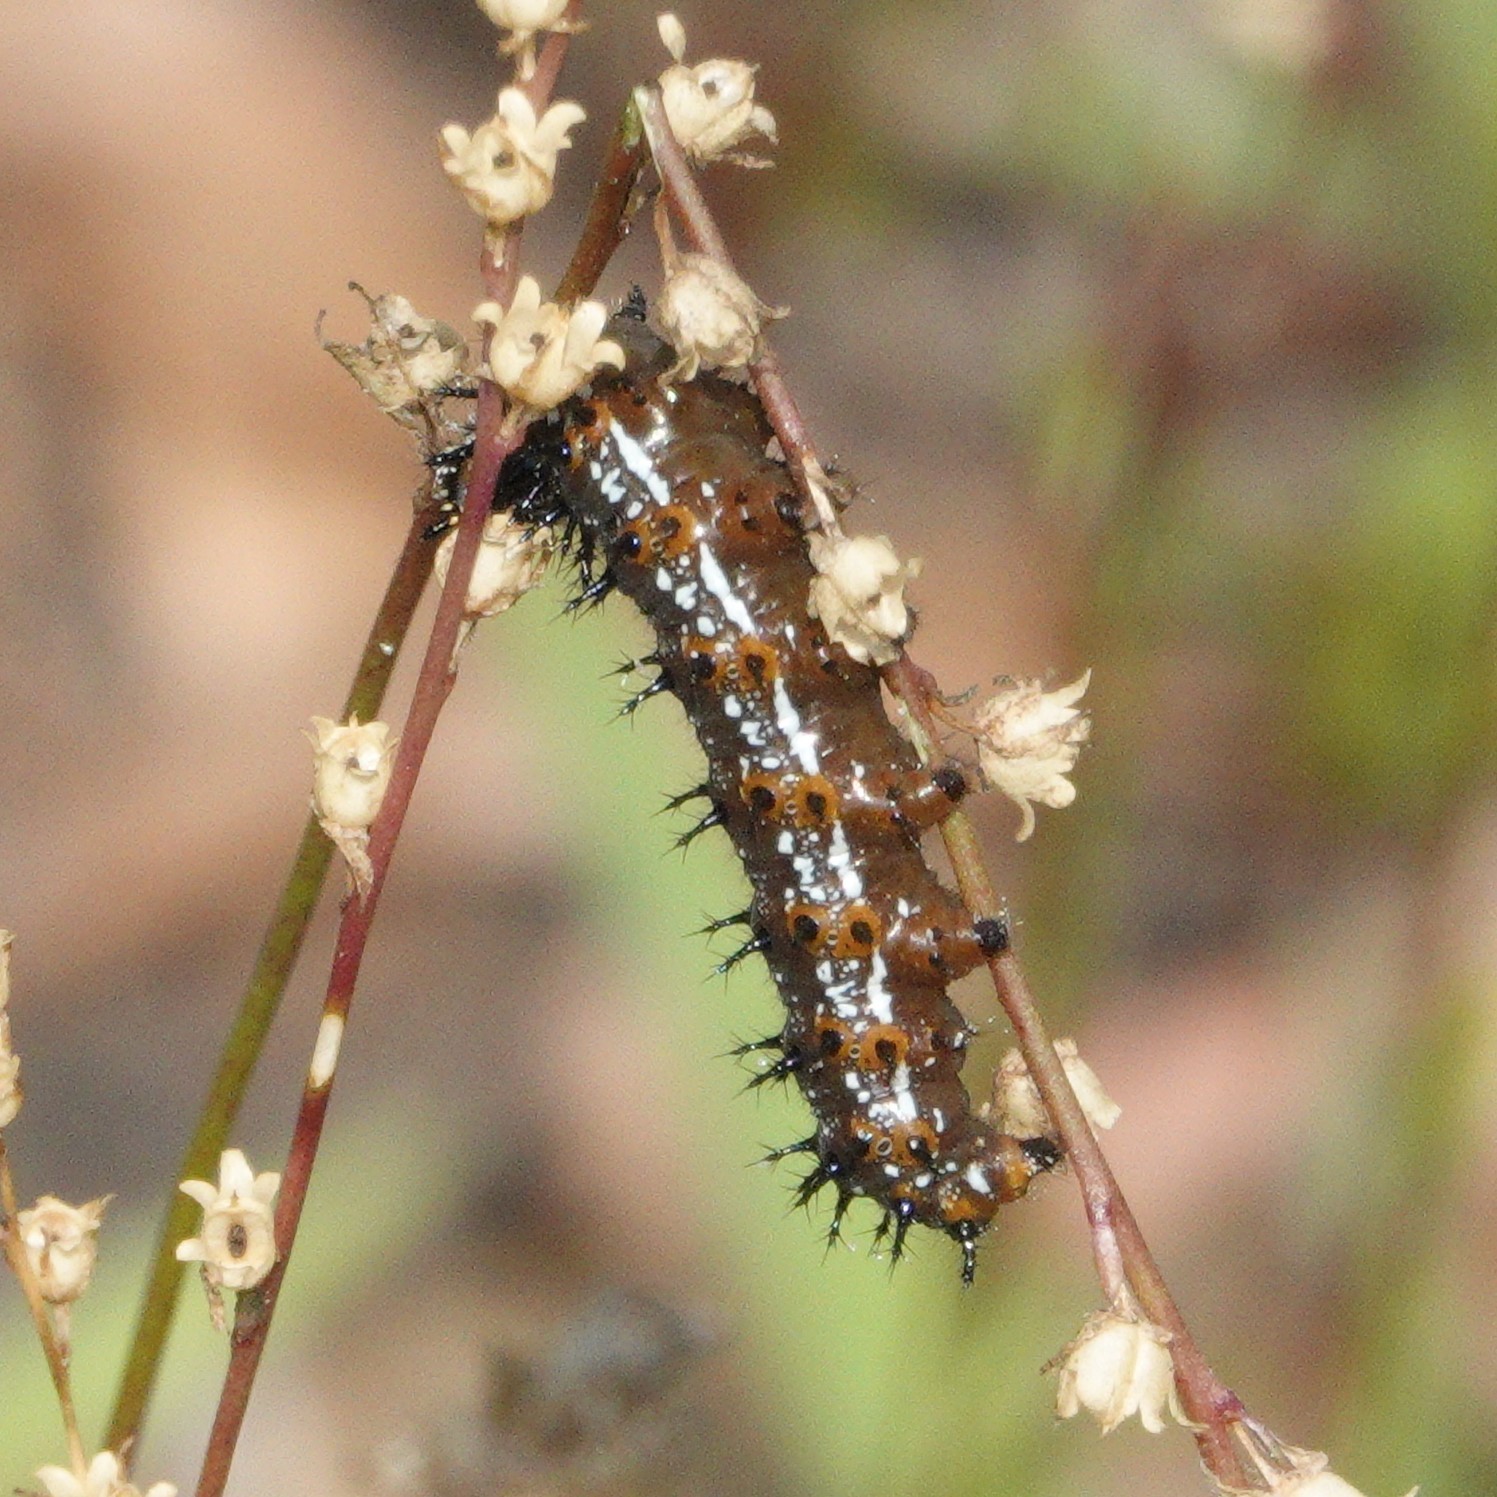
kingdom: Animalia
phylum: Arthropoda
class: Insecta
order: Lepidoptera
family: Nymphalidae
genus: Junonia
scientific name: Junonia coenia
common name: Common buckeye
